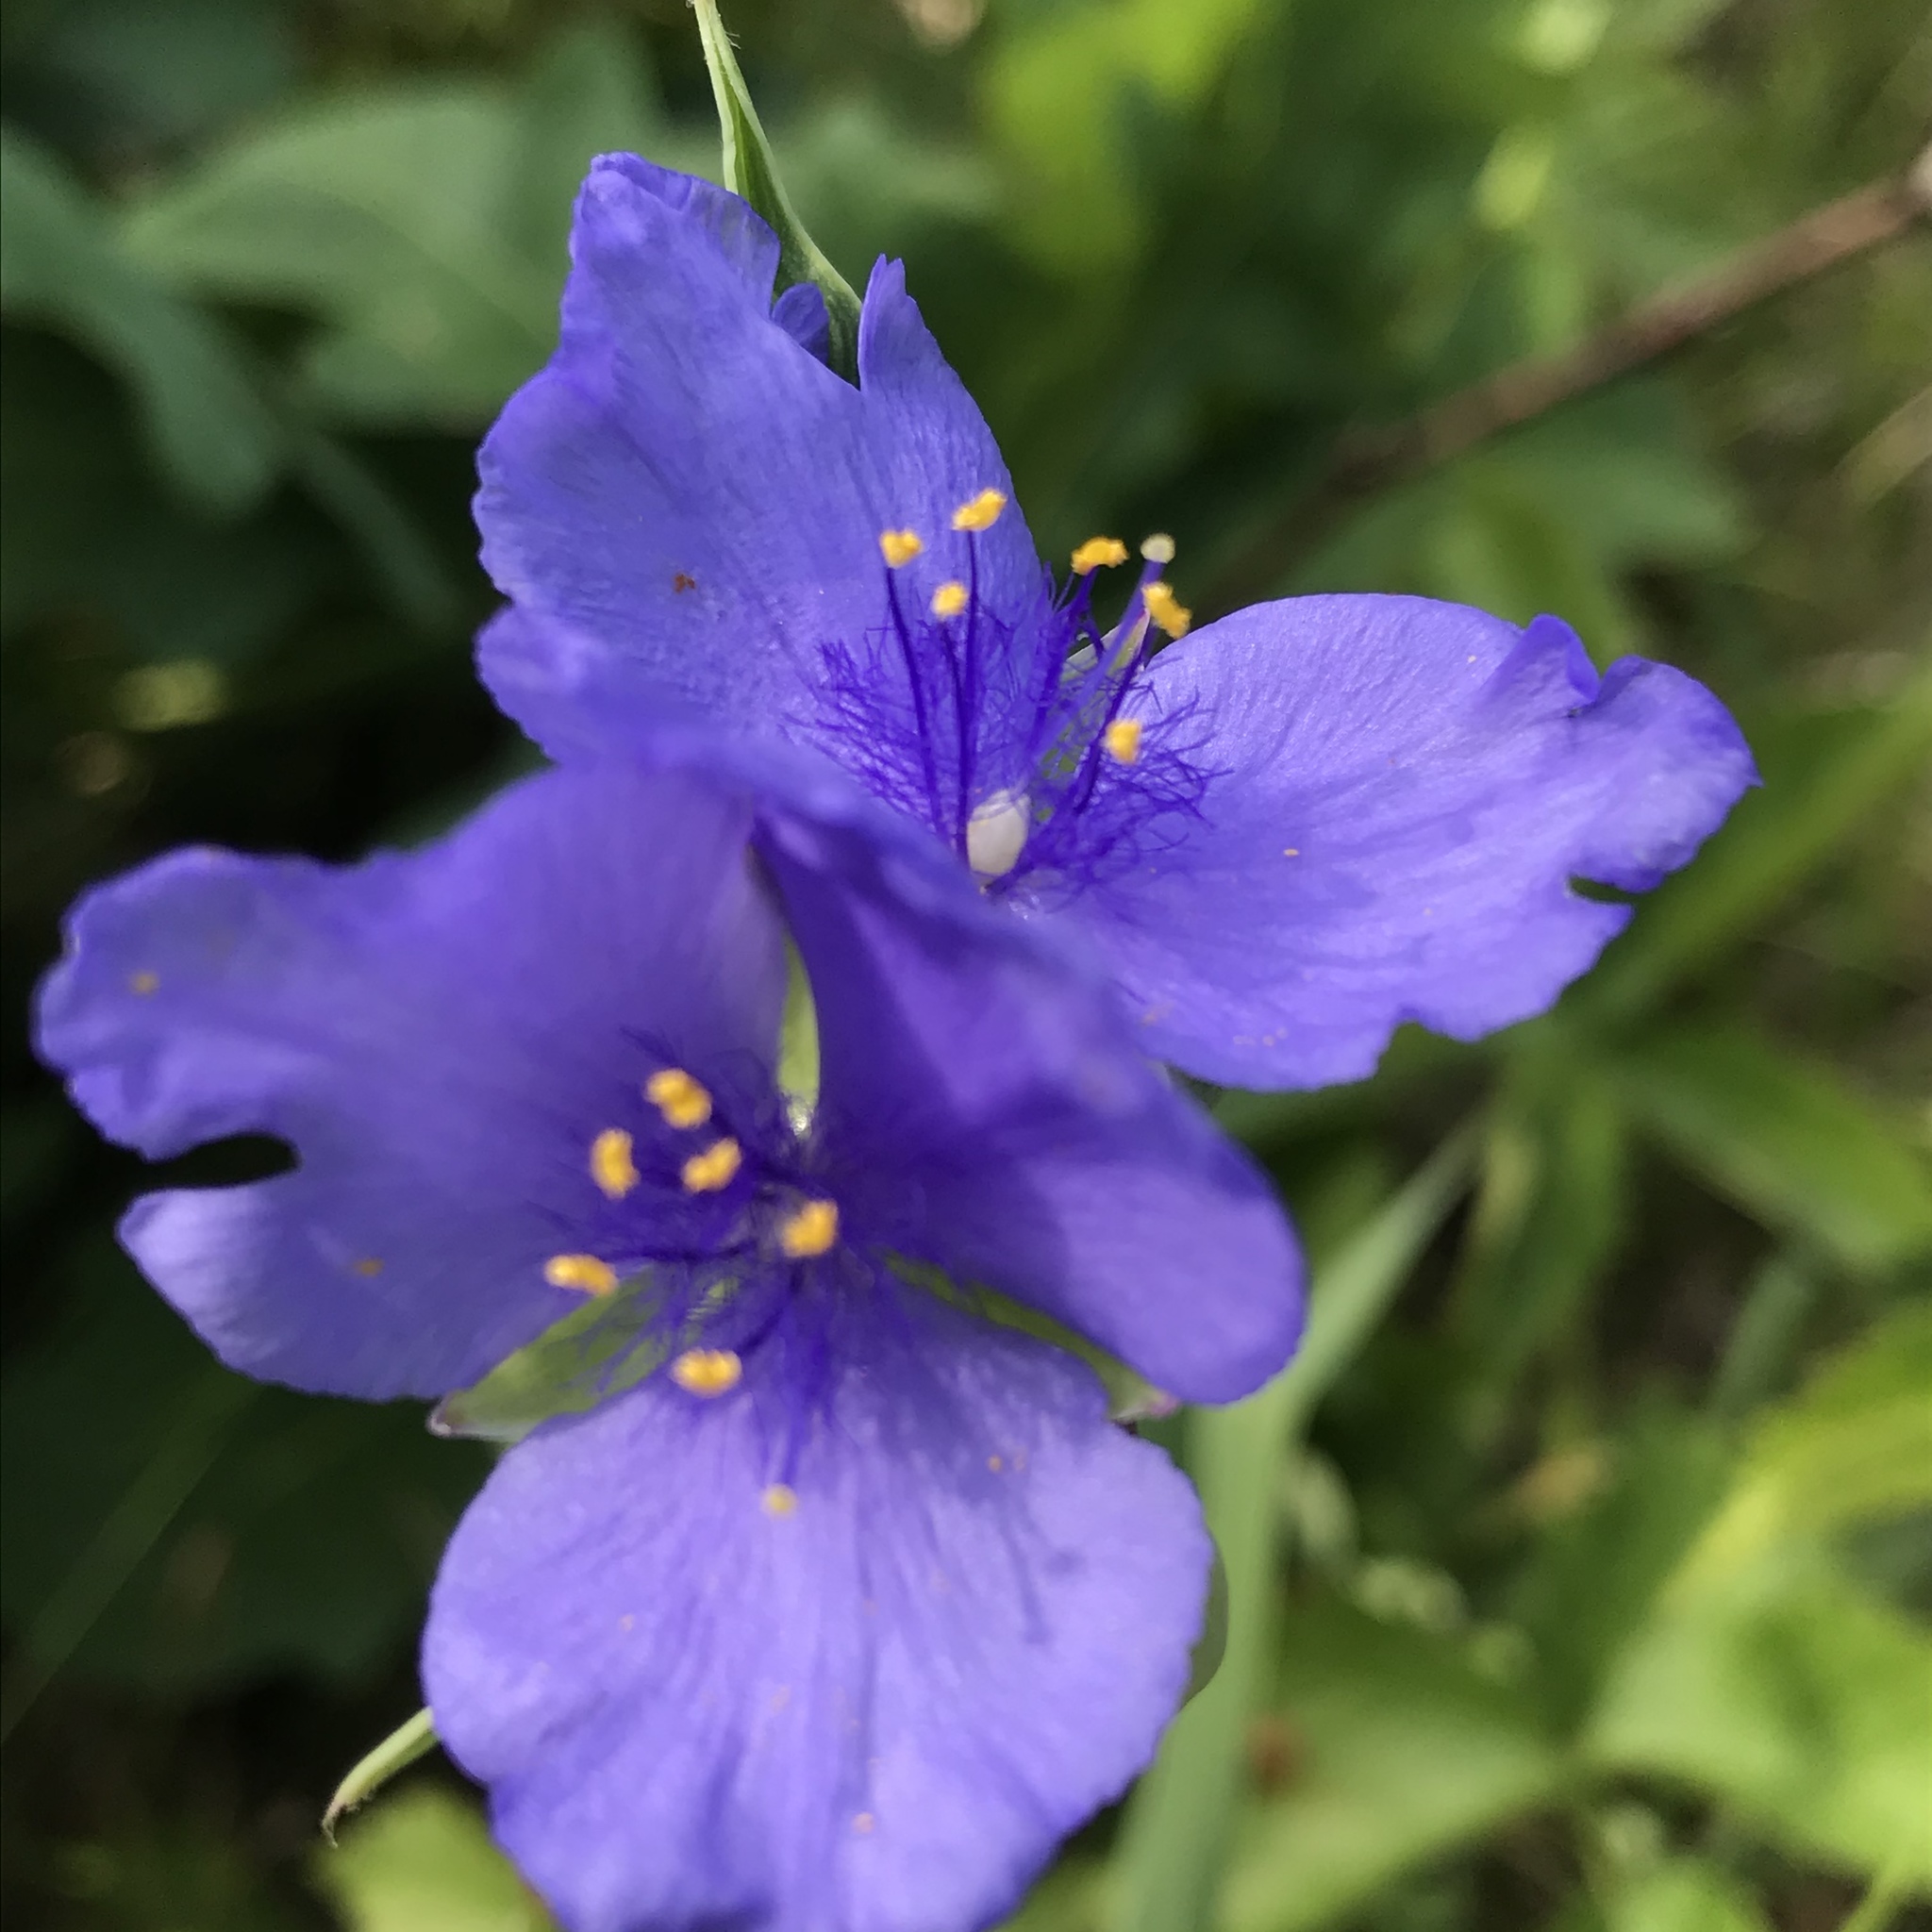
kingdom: Plantae
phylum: Tracheophyta
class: Liliopsida
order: Commelinales
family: Commelinaceae
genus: Tradescantia
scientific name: Tradescantia ohiensis
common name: Ohio spiderwort
